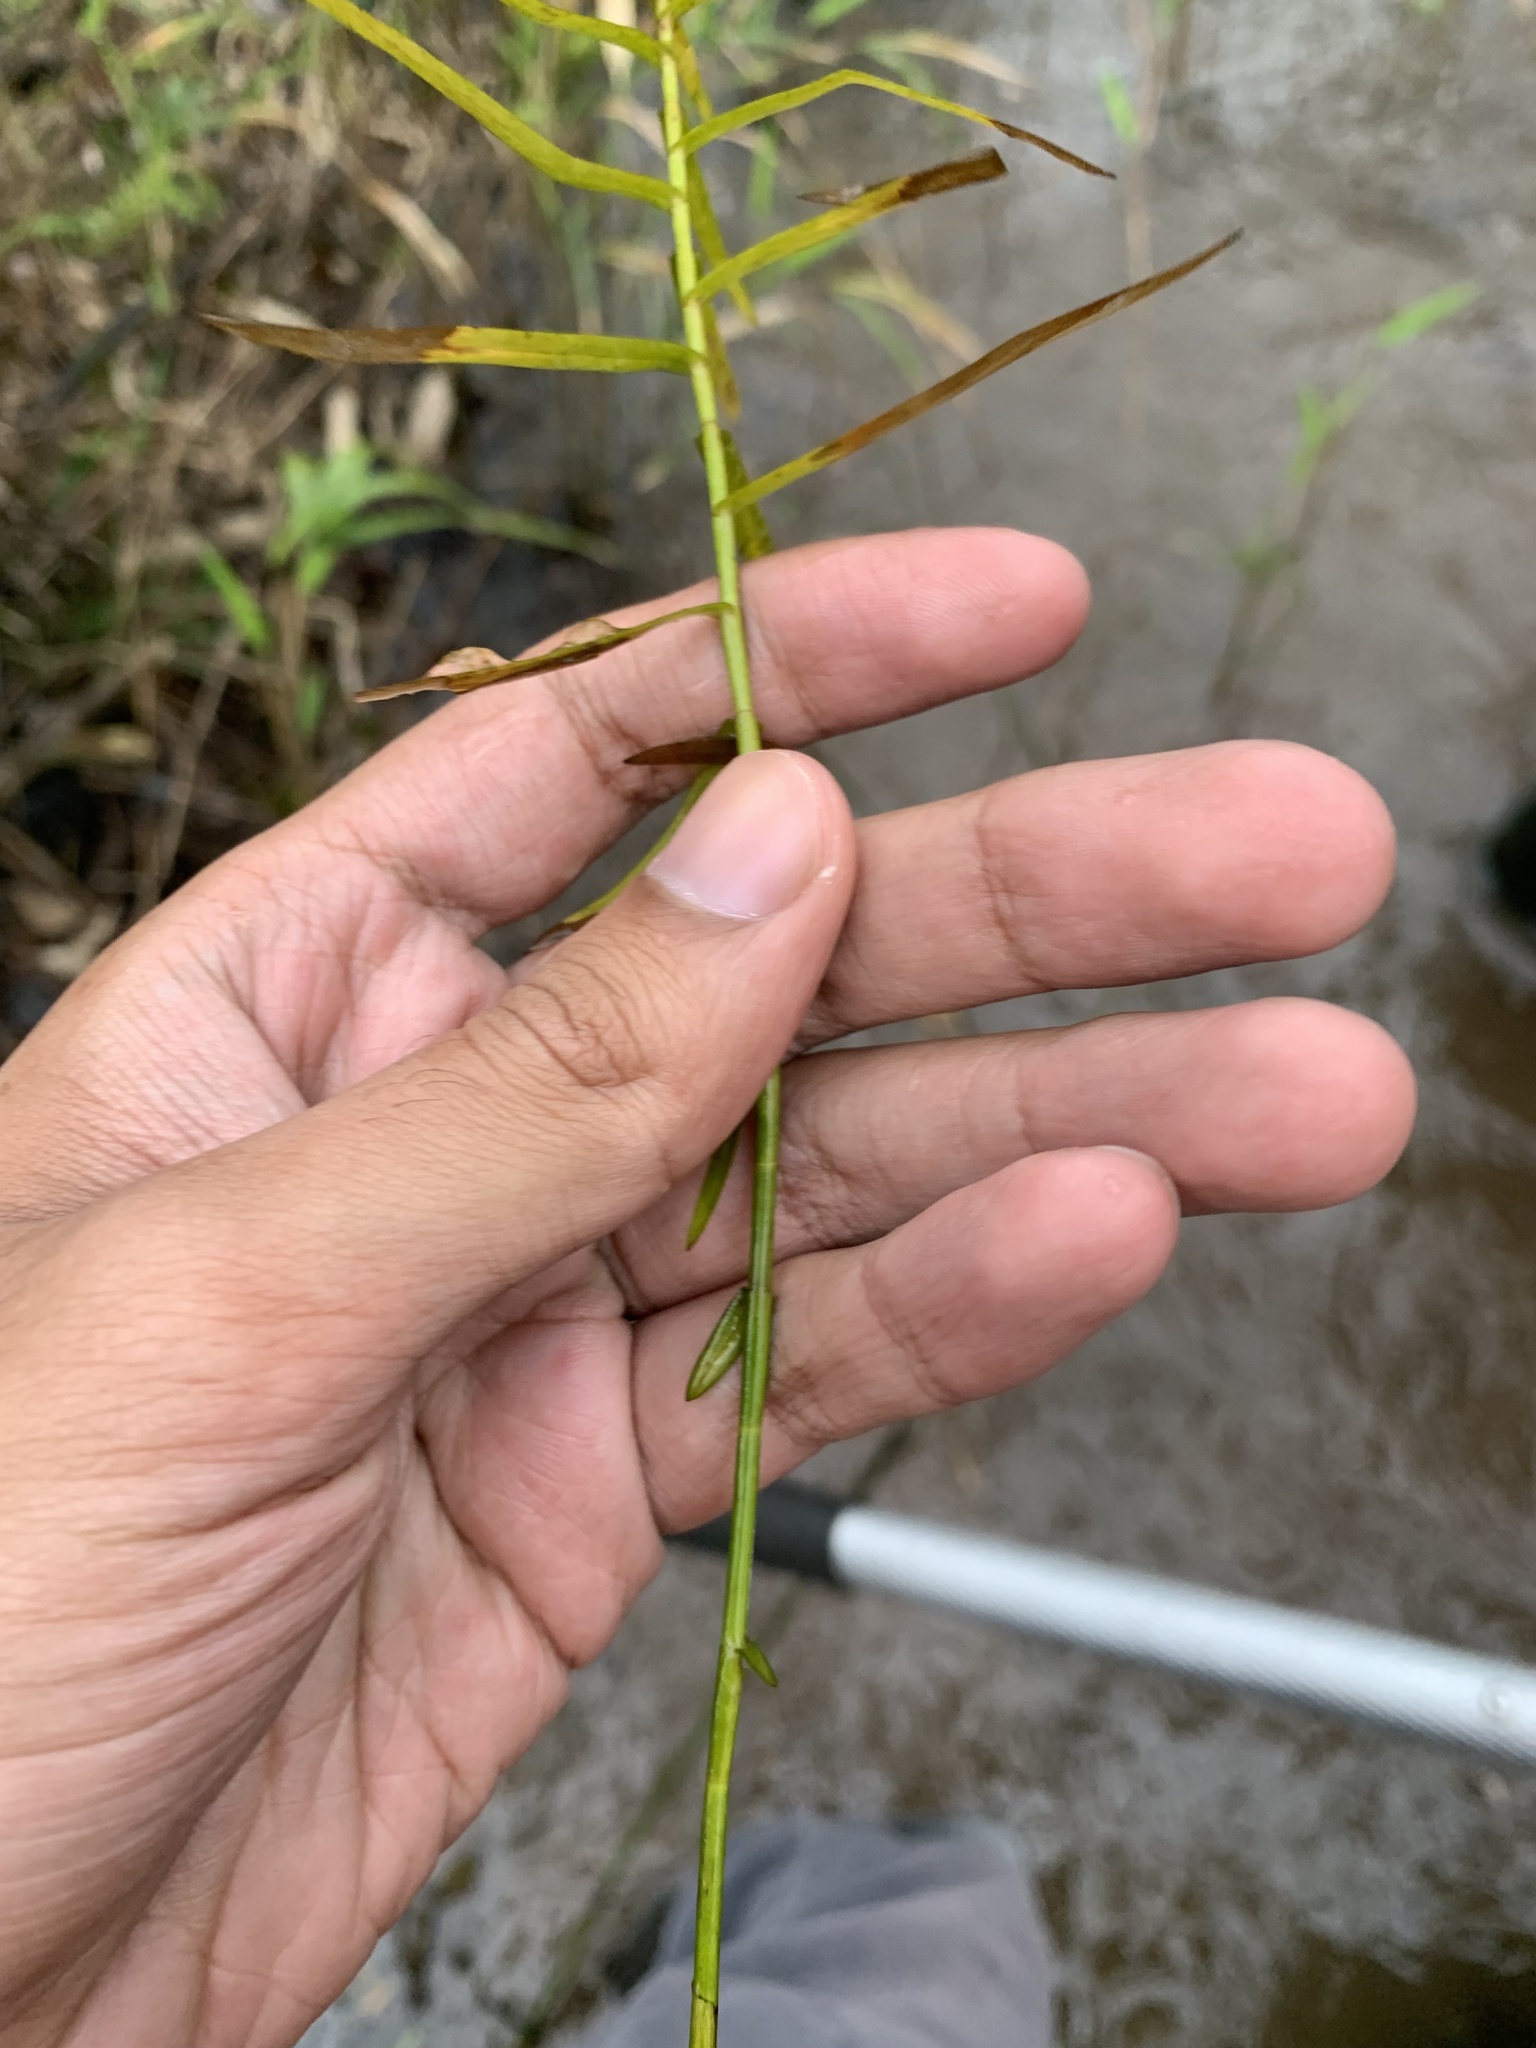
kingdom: Plantae
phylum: Tracheophyta
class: Liliopsida
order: Poales
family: Cyperaceae
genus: Dulichium
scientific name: Dulichium arundinaceum
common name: Three-way sedge
